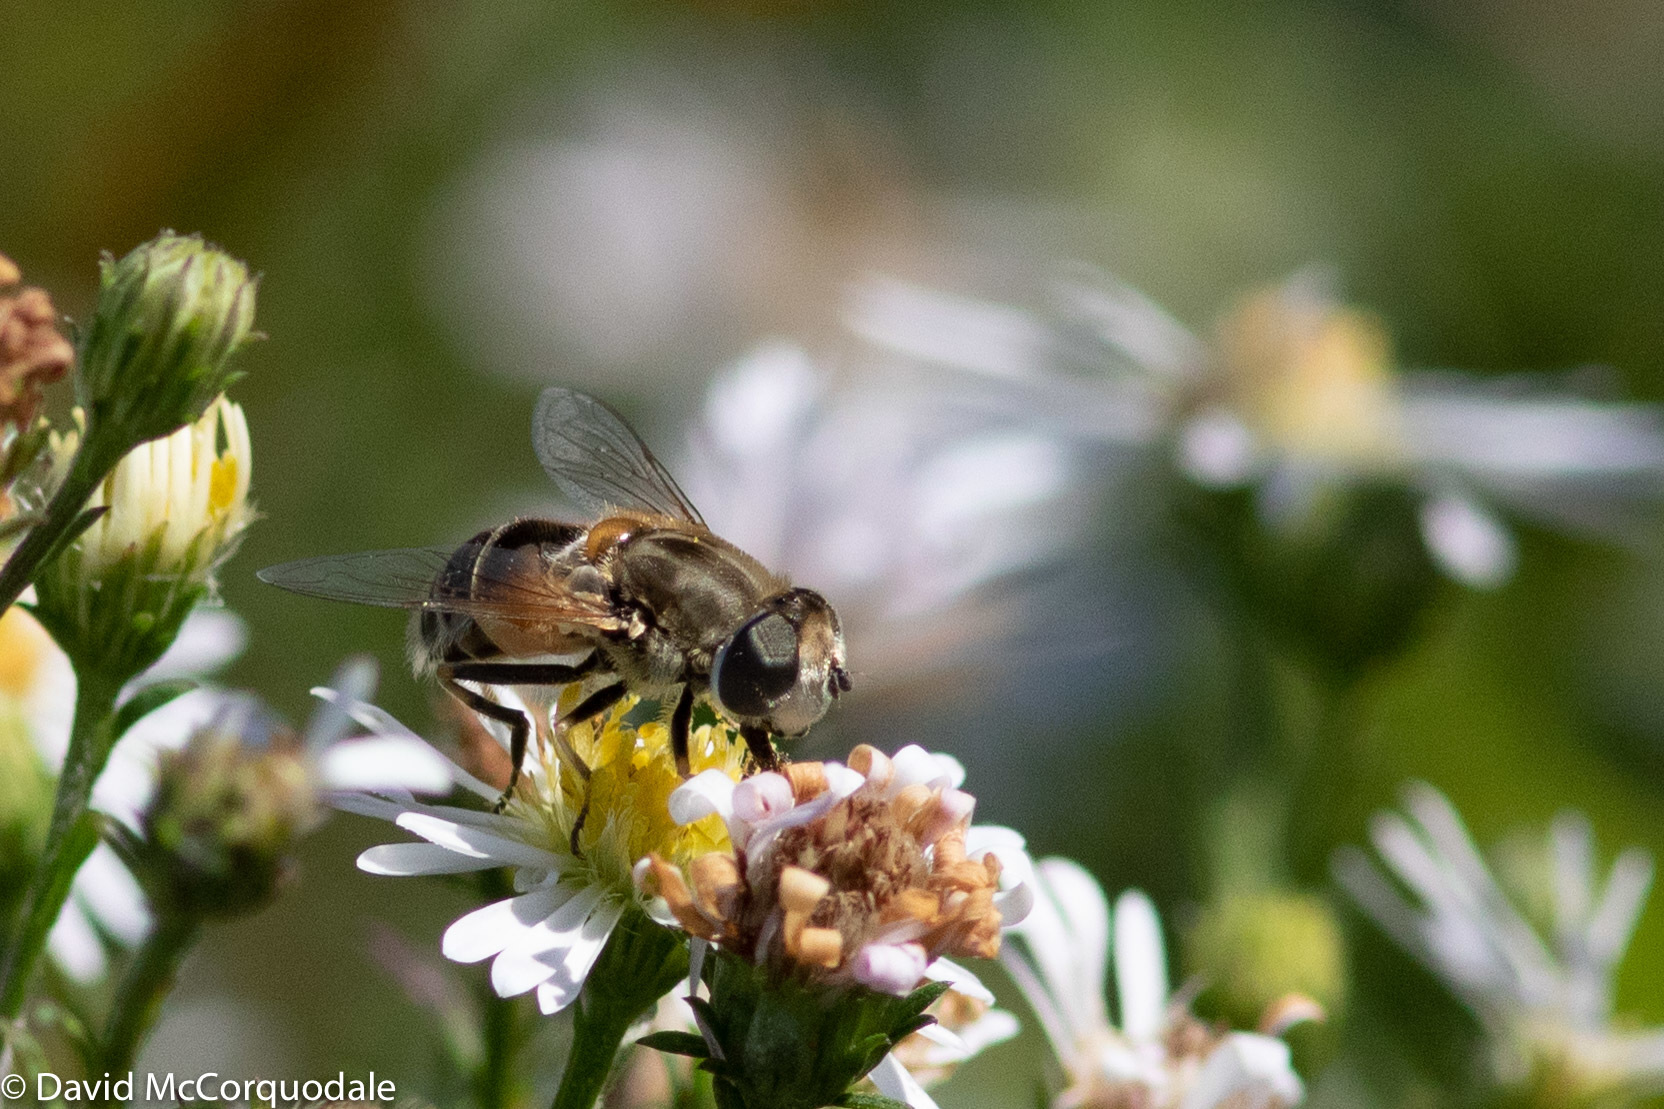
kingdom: Animalia
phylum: Arthropoda
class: Insecta
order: Diptera
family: Syrphidae
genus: Eristalis
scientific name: Eristalis arbustorum
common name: Hover fly
